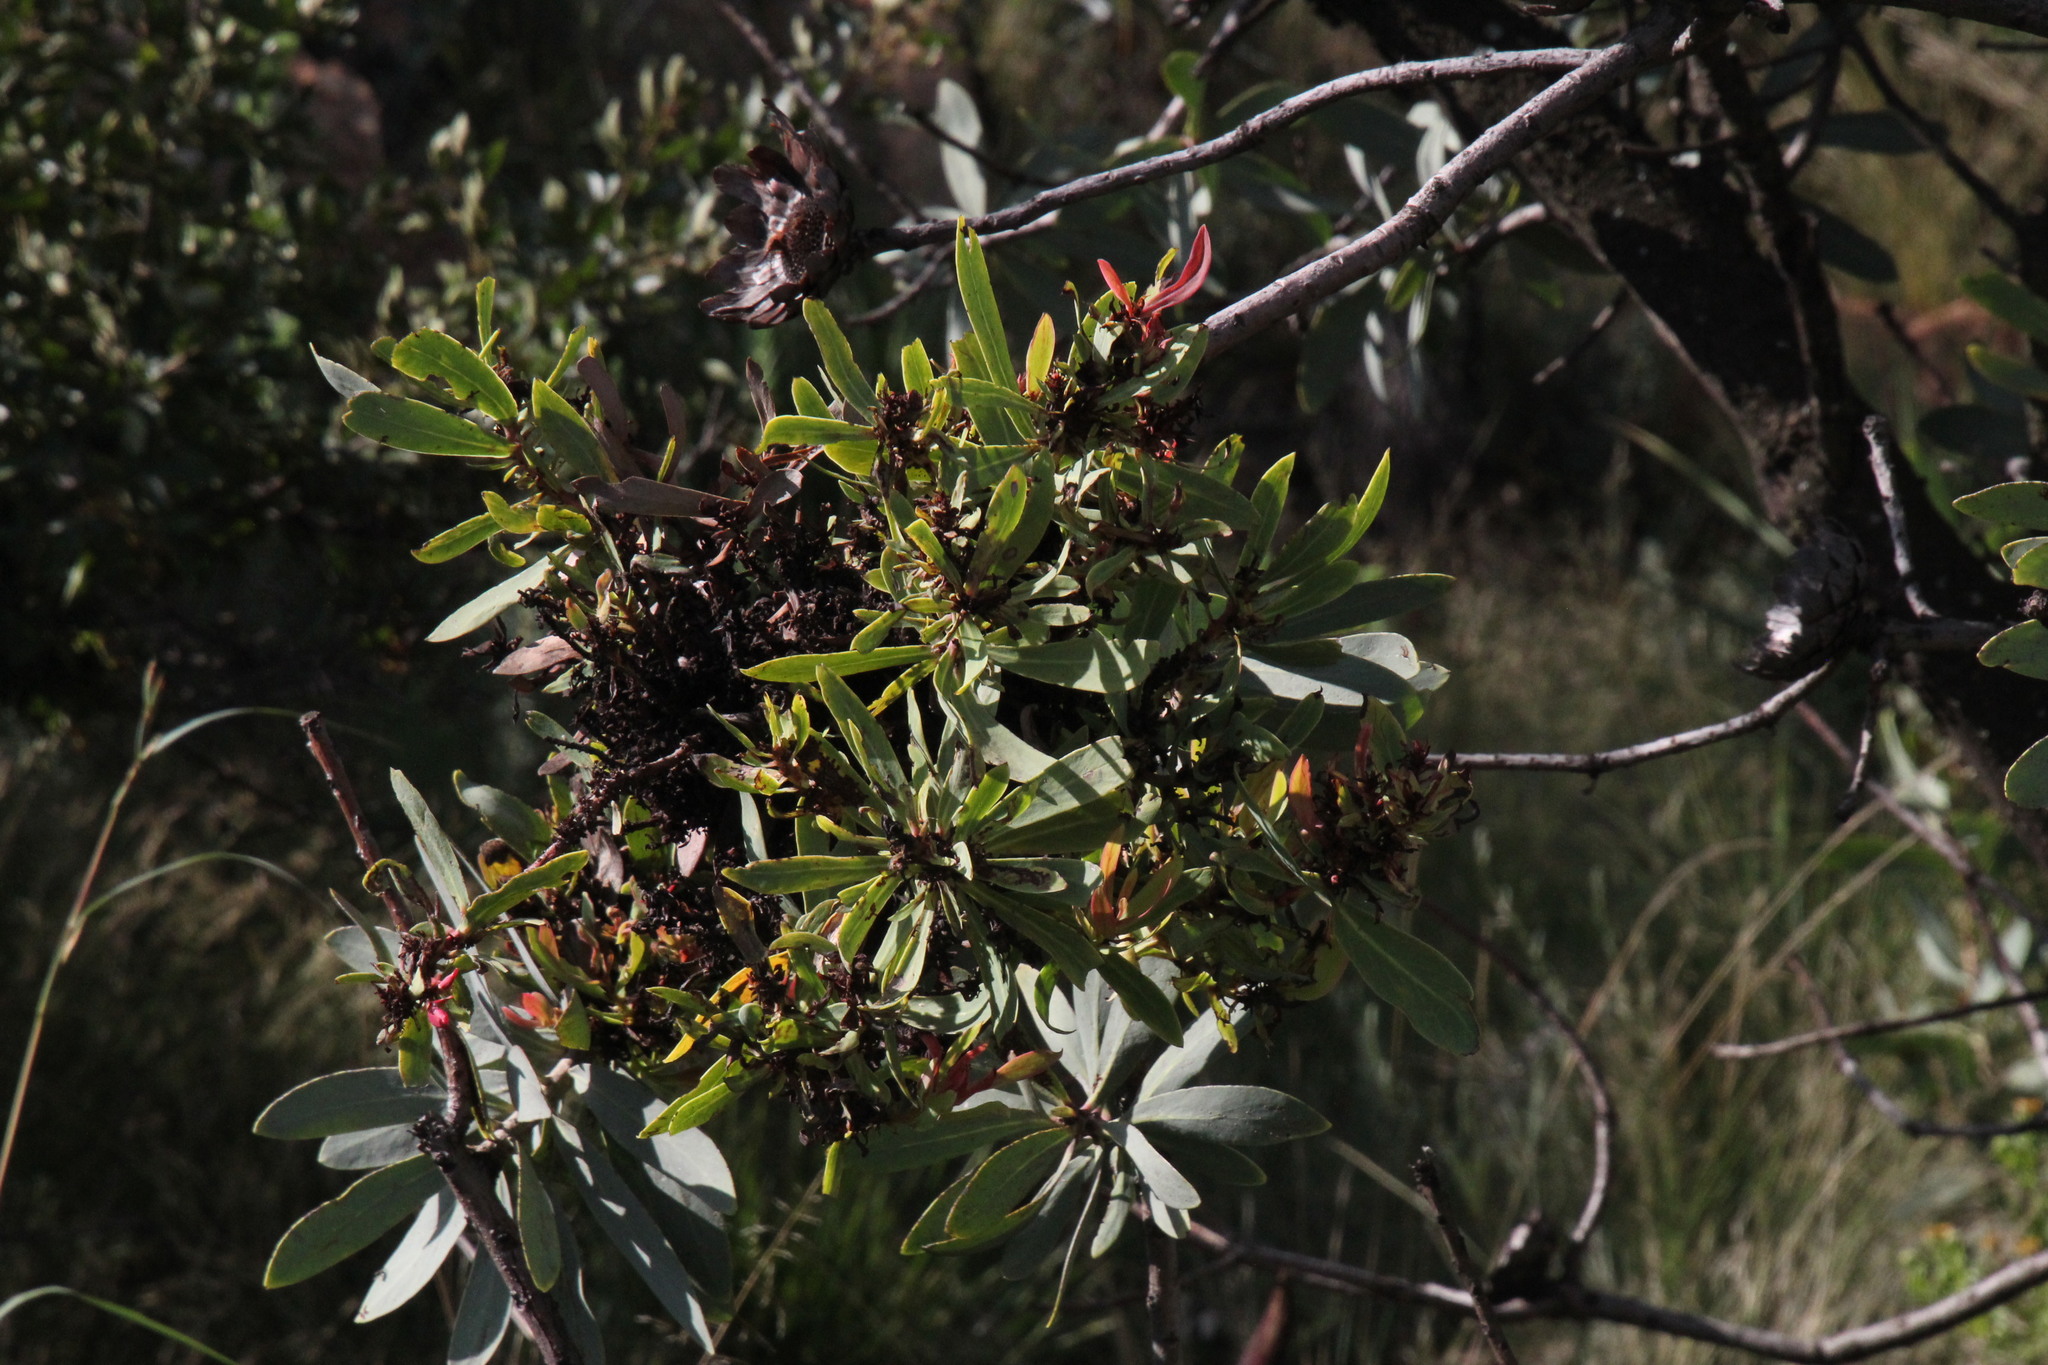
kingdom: Bacteria
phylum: Firmicutes
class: Bacilli
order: Acholeplasmatales
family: Acholeplasmataceae
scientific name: Acholeplasmataceae
